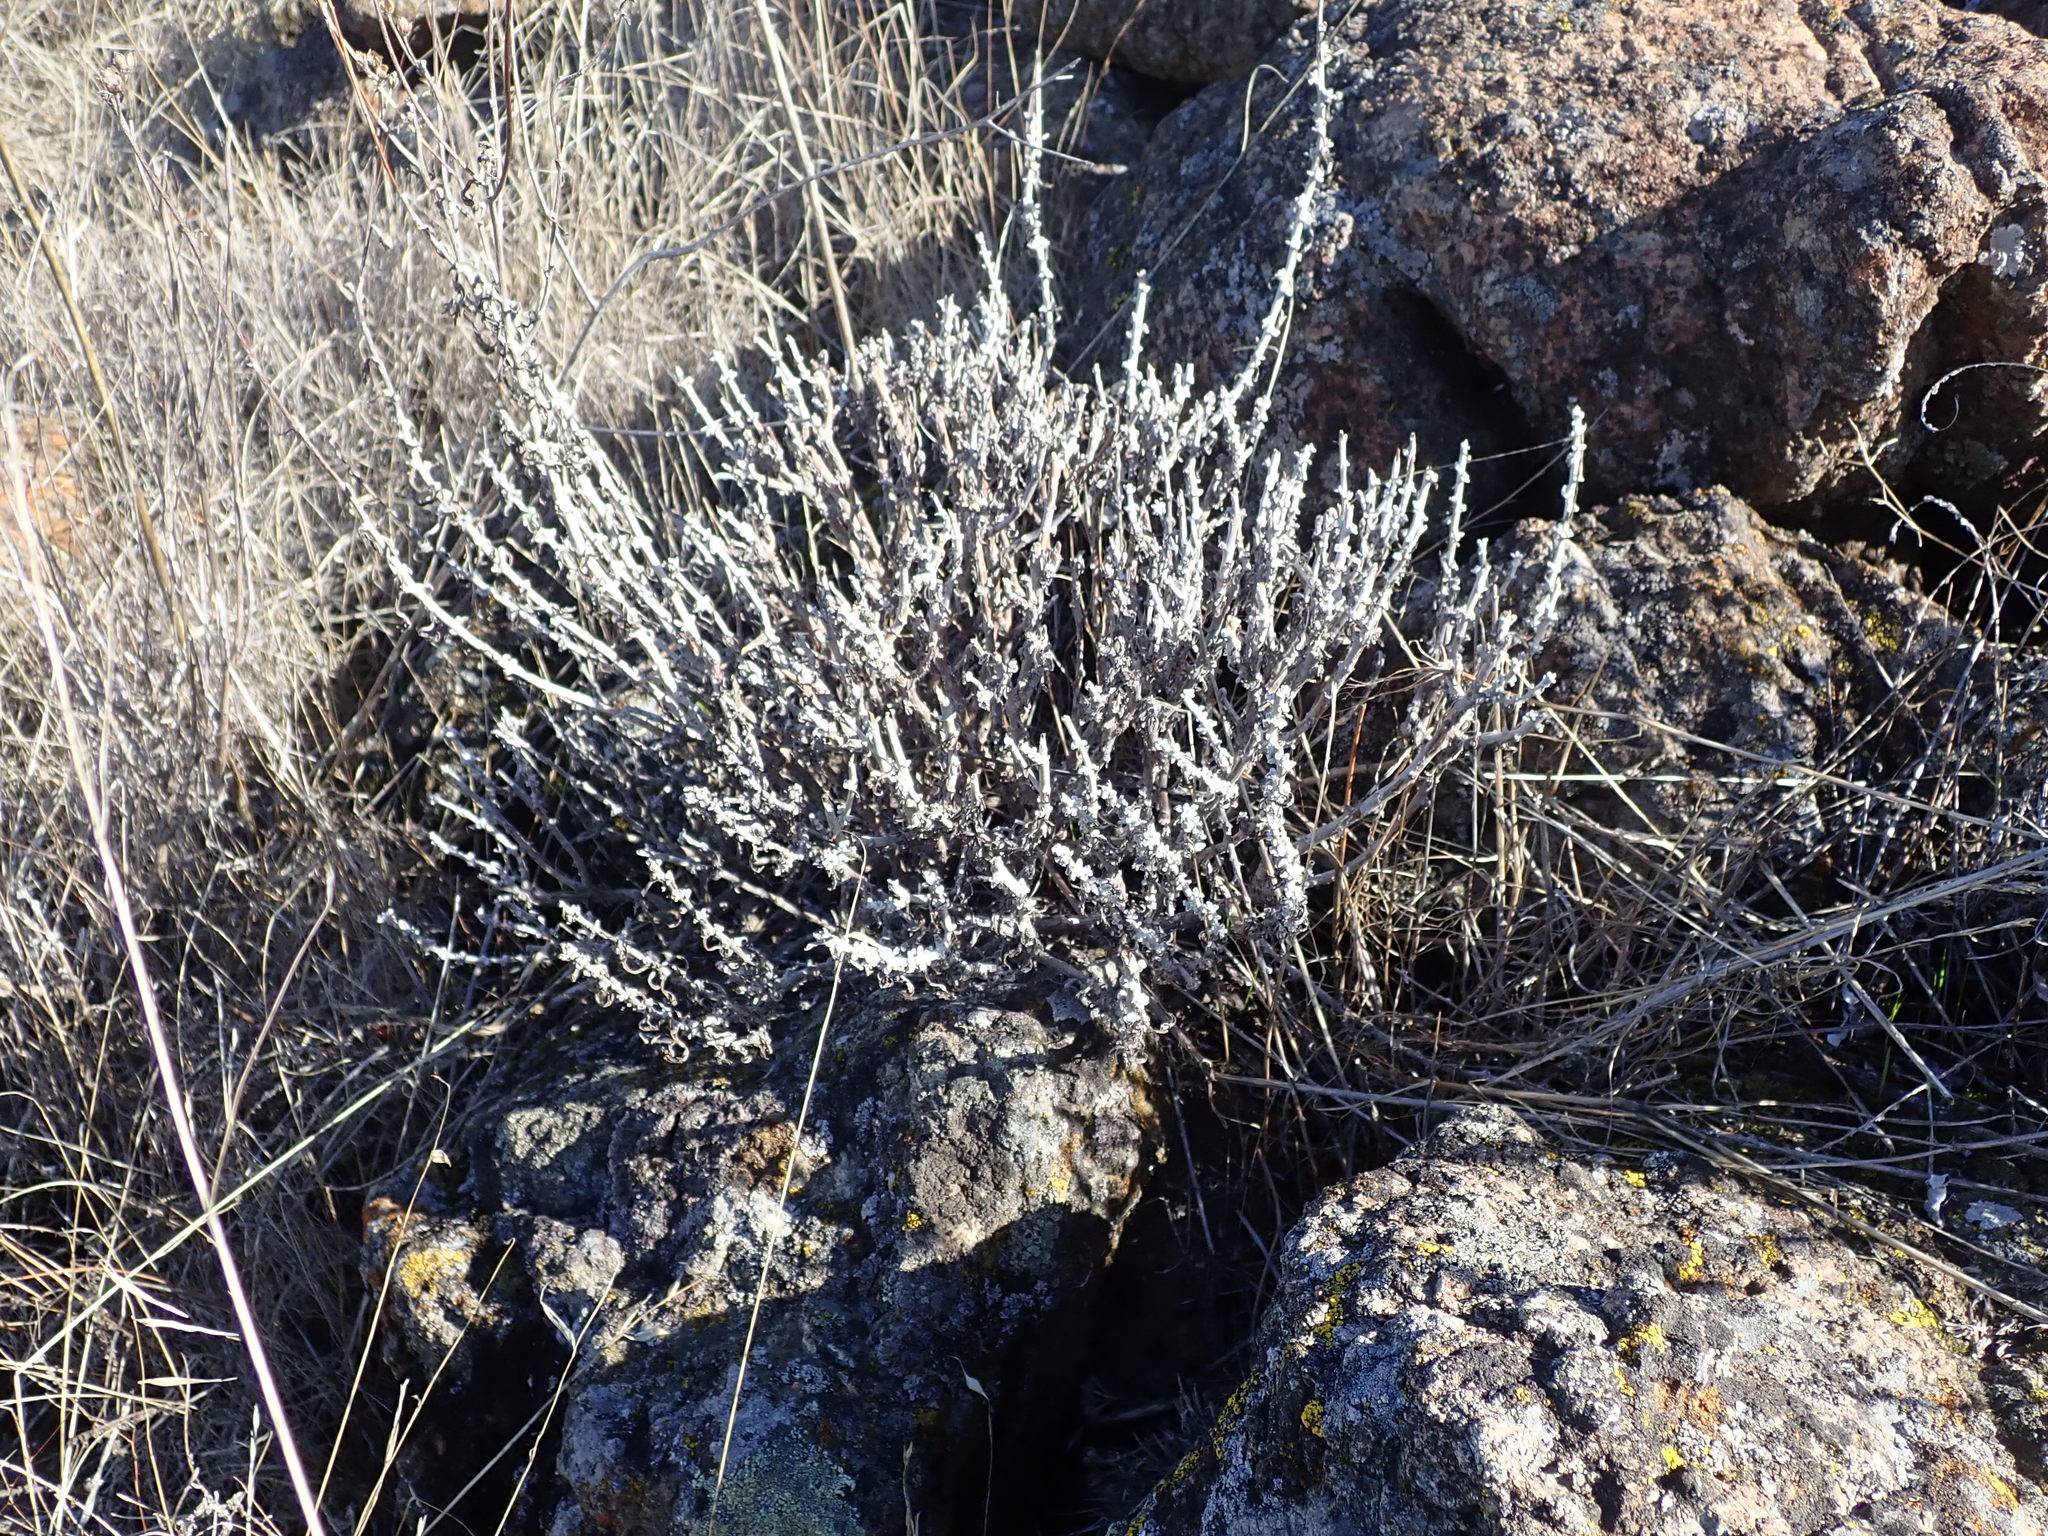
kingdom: Plantae
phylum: Tracheophyta
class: Magnoliopsida
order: Asterales
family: Asteraceae
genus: Eriophyllum
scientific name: Eriophyllum confertiflorum
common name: Golden-yarrow
